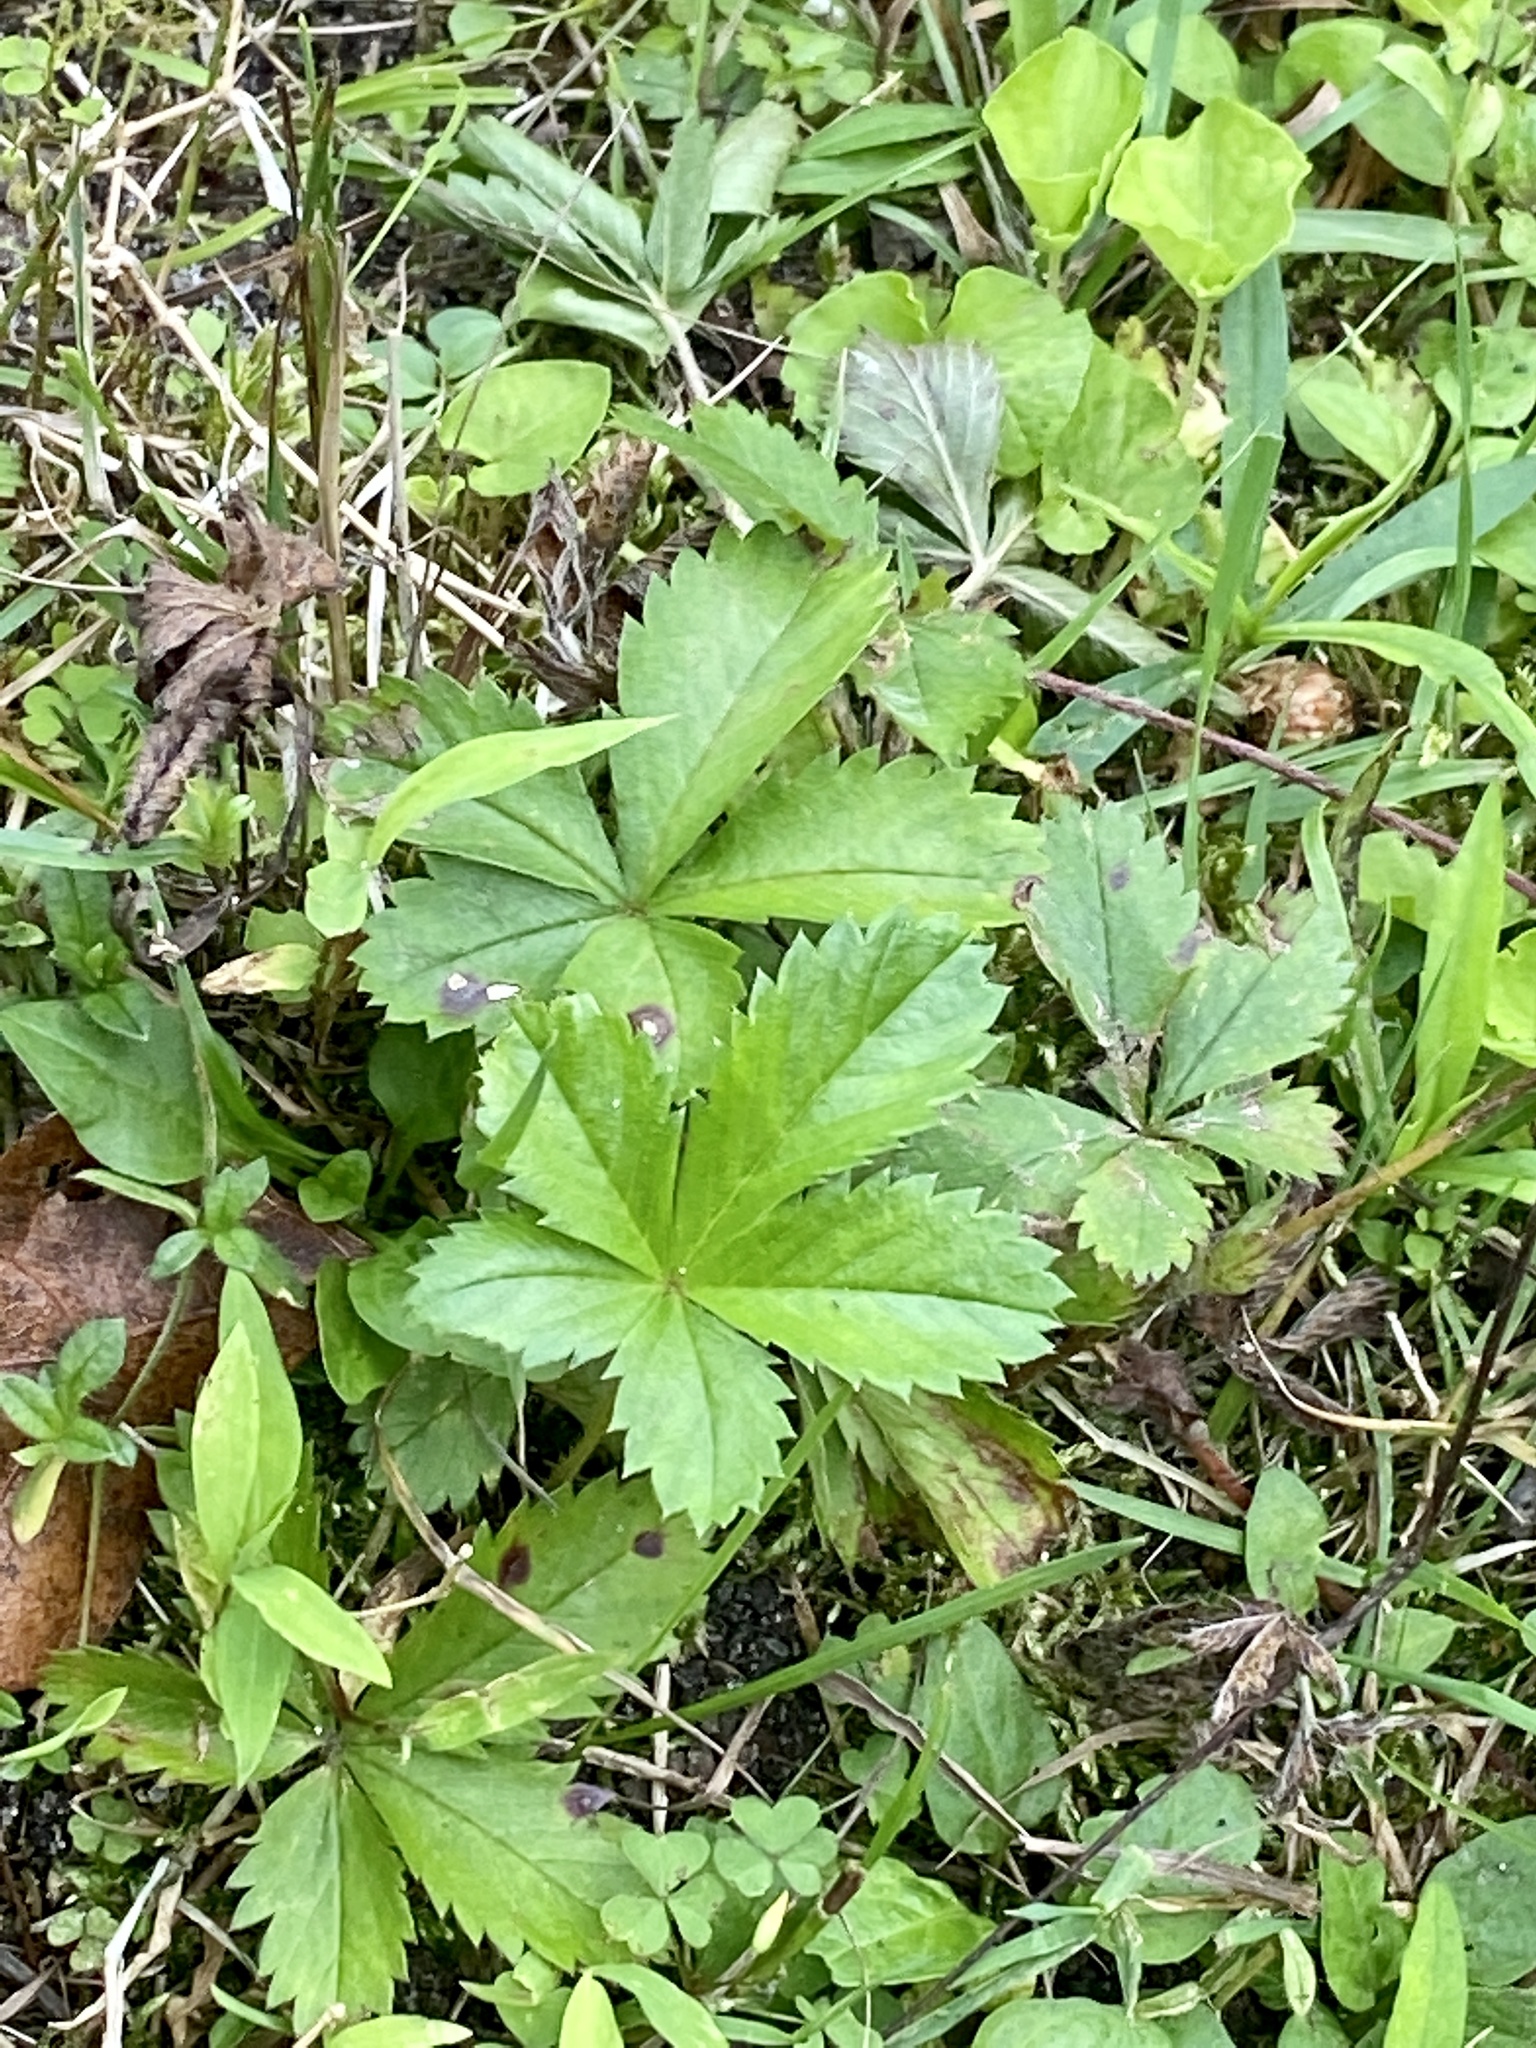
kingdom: Plantae
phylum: Tracheophyta
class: Magnoliopsida
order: Rosales
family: Rosaceae
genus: Potentilla
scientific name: Potentilla canadensis
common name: Canada cinquefoil
